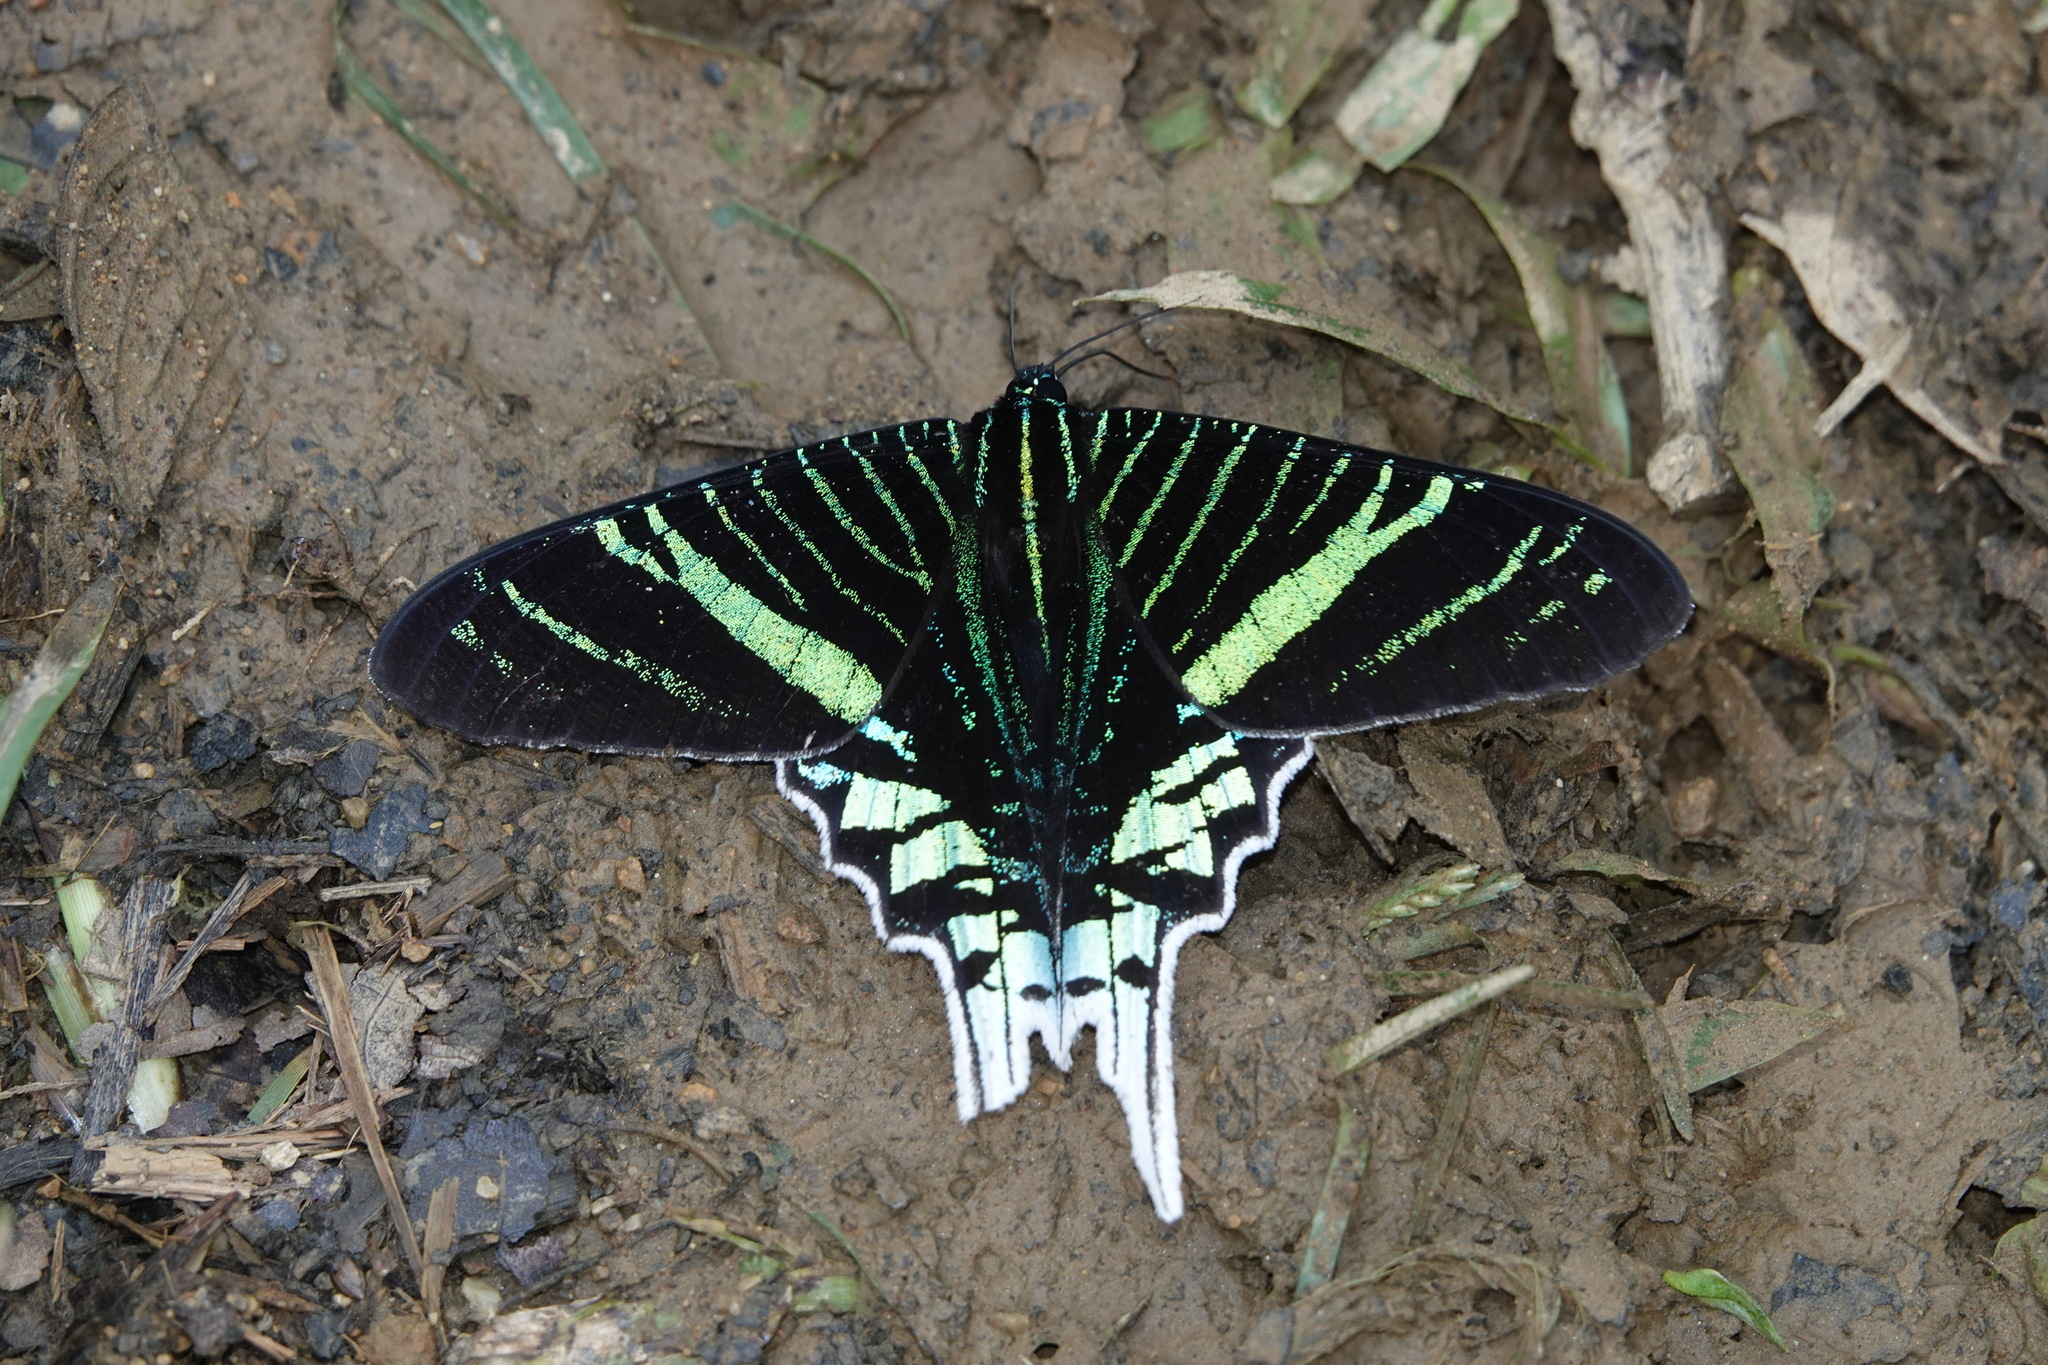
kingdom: Animalia
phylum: Arthropoda
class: Insecta
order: Lepidoptera
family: Uraniidae
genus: Urania
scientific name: Urania leilus
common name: Peacock moth
